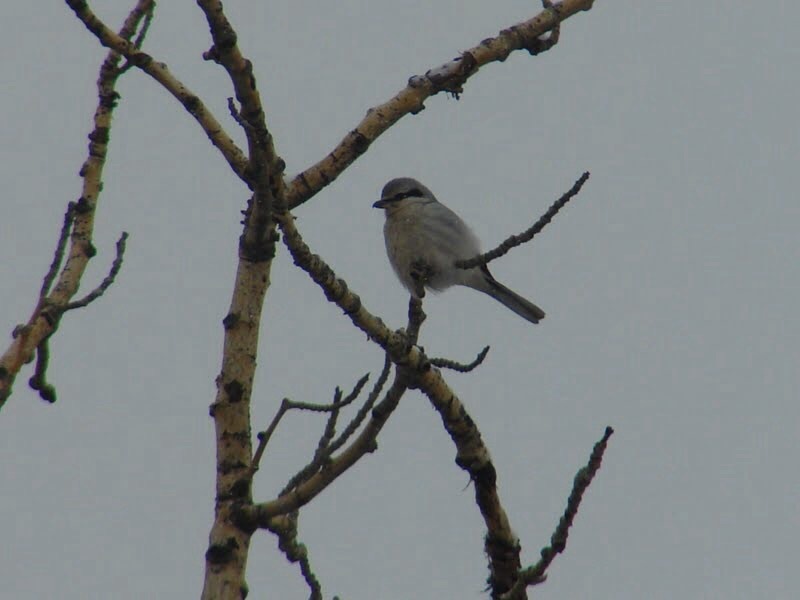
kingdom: Animalia
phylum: Chordata
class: Aves
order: Passeriformes
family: Laniidae
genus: Lanius
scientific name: Lanius borealis
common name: Northern shrike
